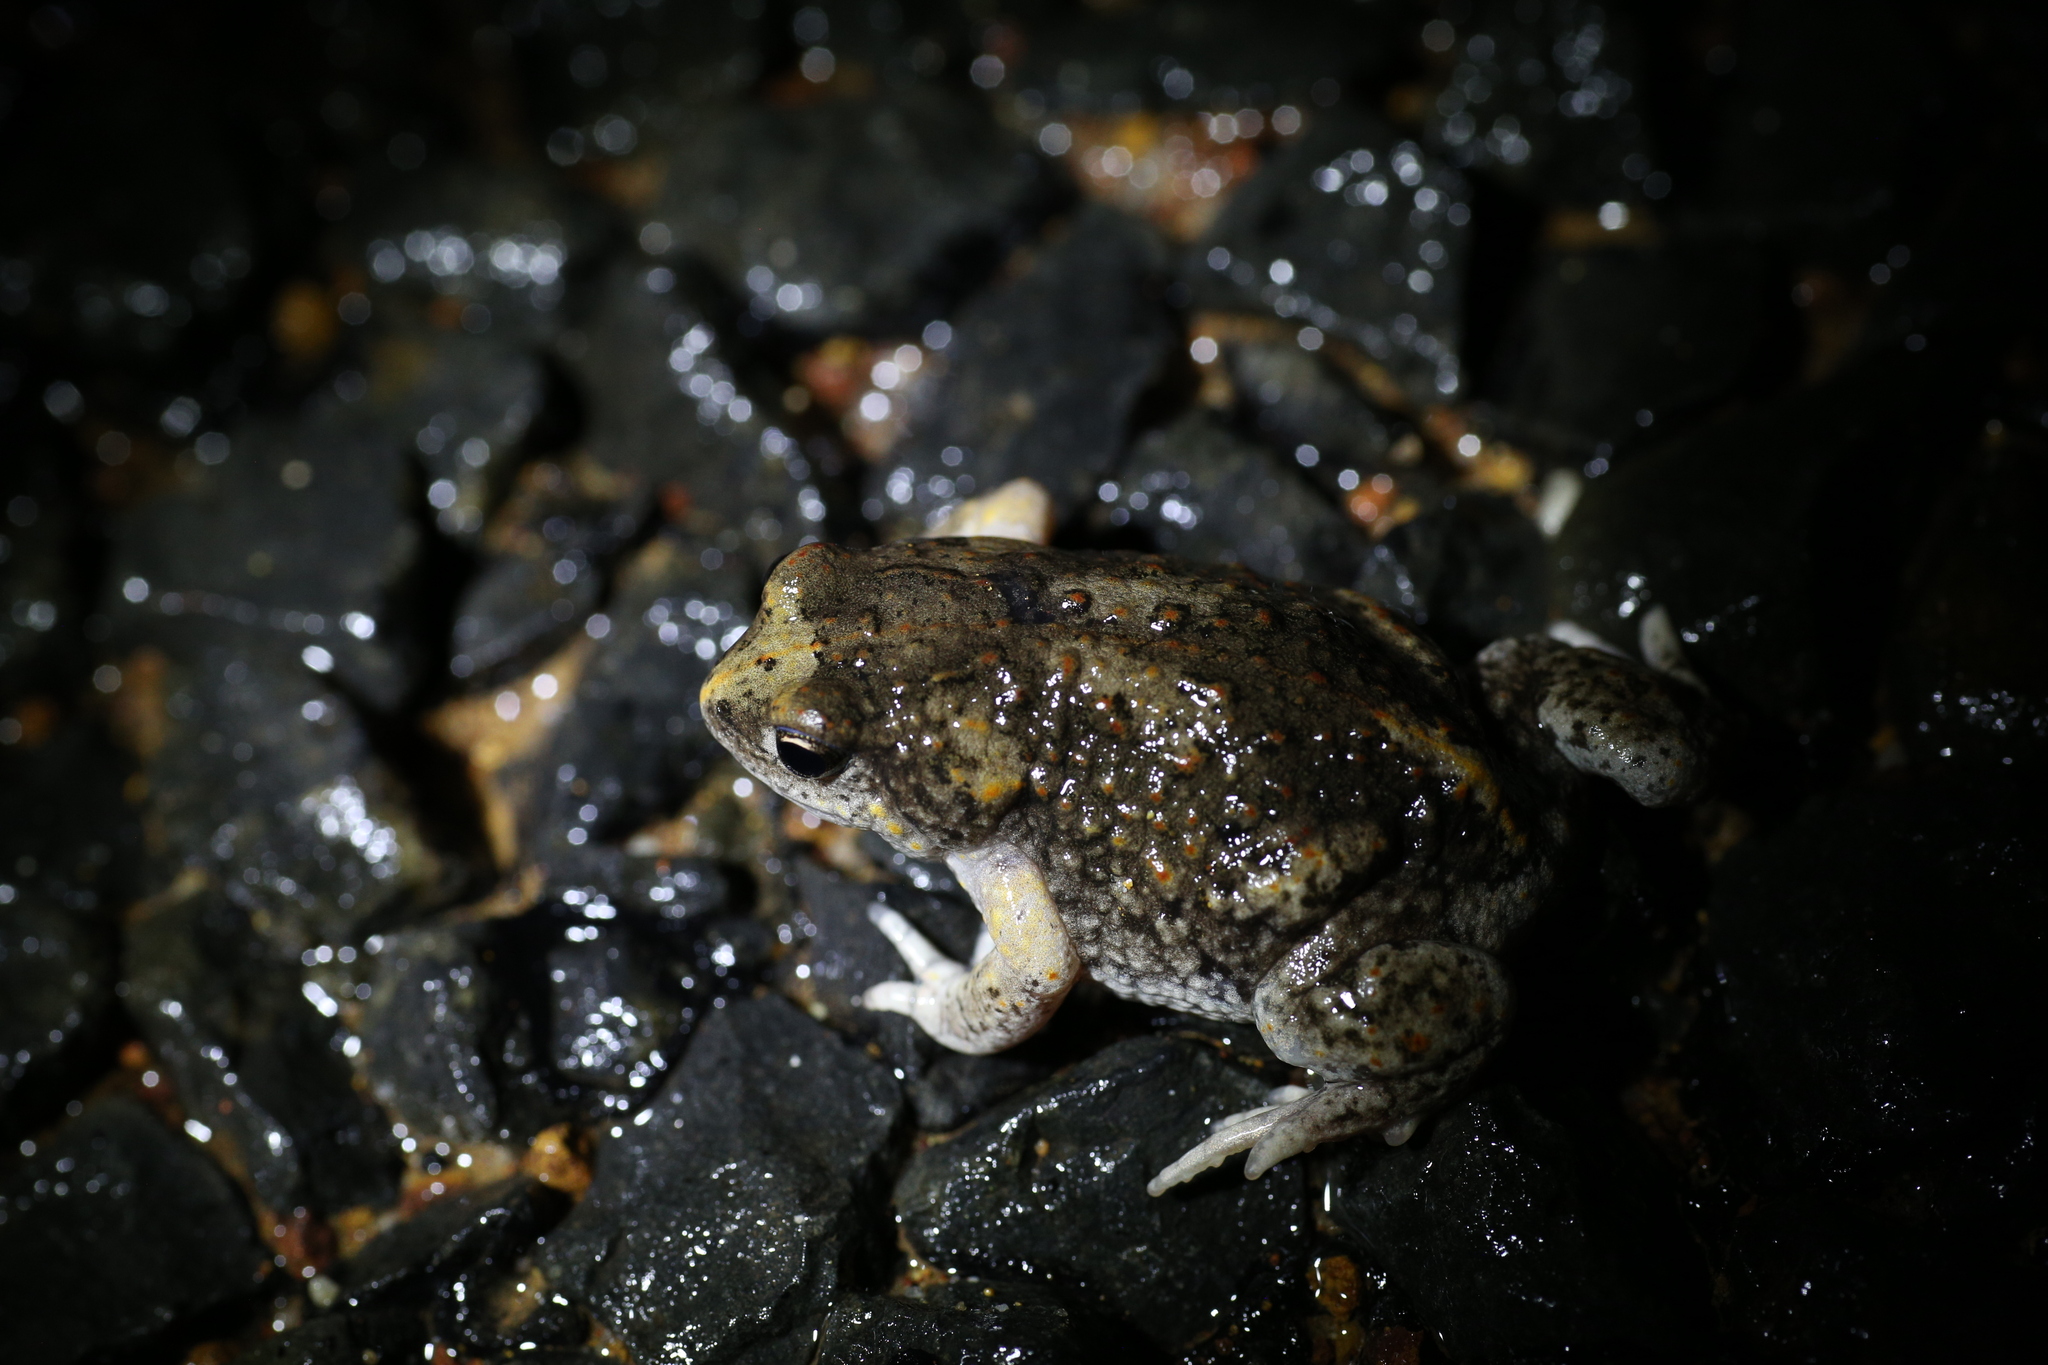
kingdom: Animalia
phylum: Chordata
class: Amphibia
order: Anura
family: Myobatrachidae
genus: Pseudophryne
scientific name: Pseudophryne guentheri
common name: Günther’s toadlet
